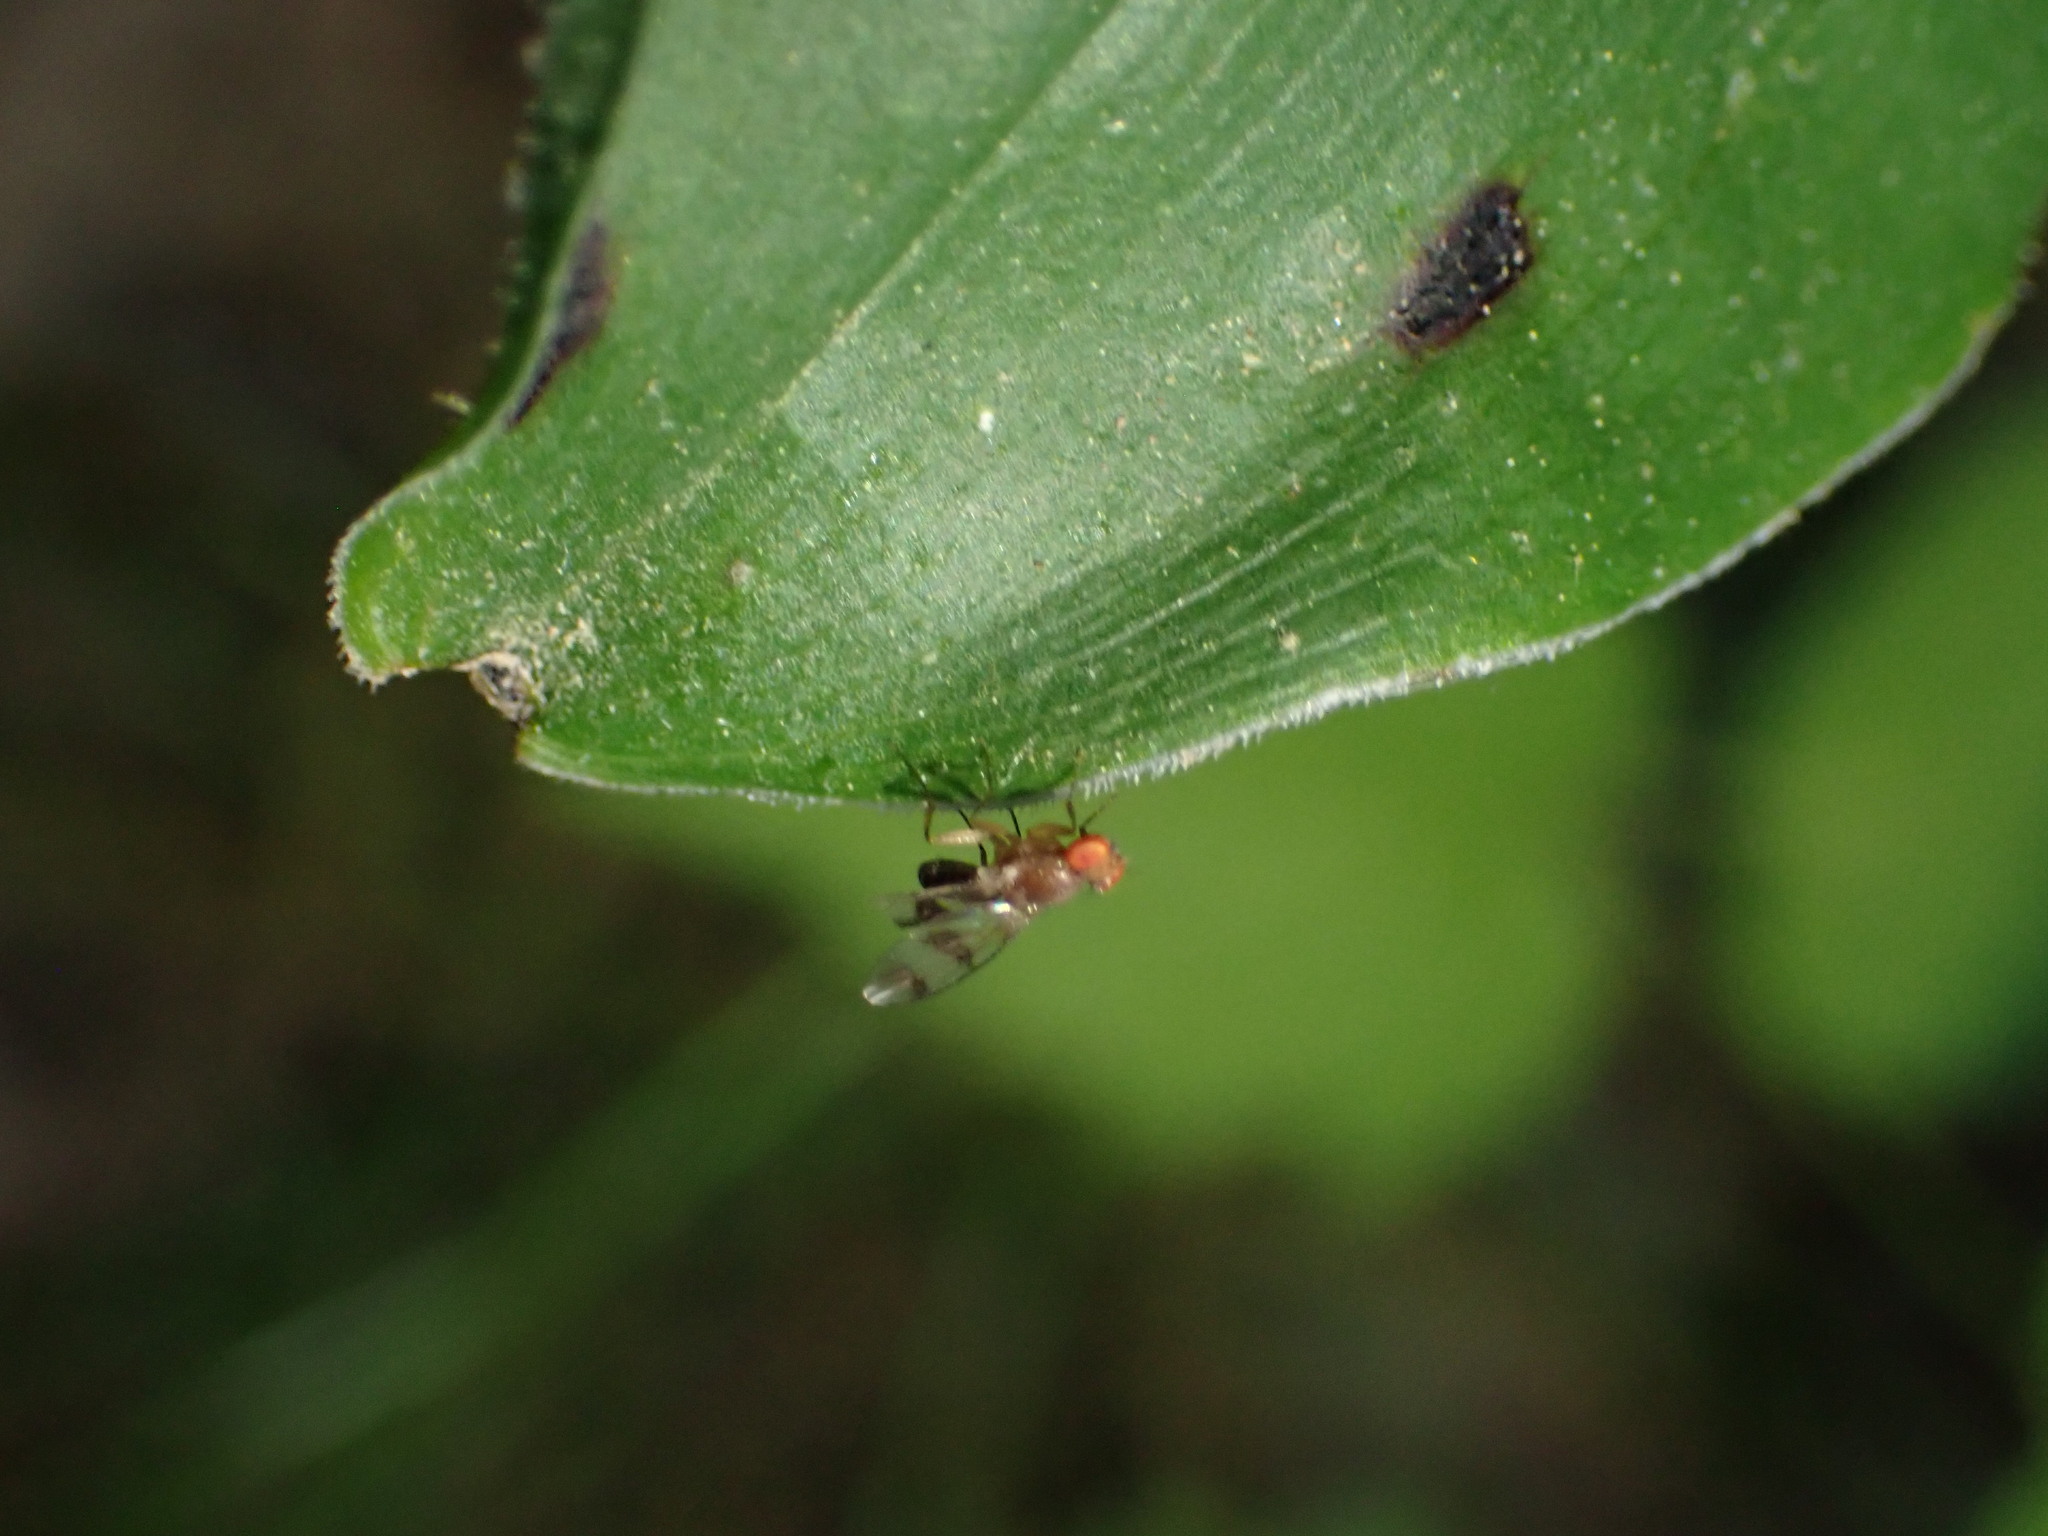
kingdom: Animalia
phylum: Arthropoda
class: Insecta
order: Diptera
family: Drosophilidae
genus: Chymomyza
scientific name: Chymomyza amoena
